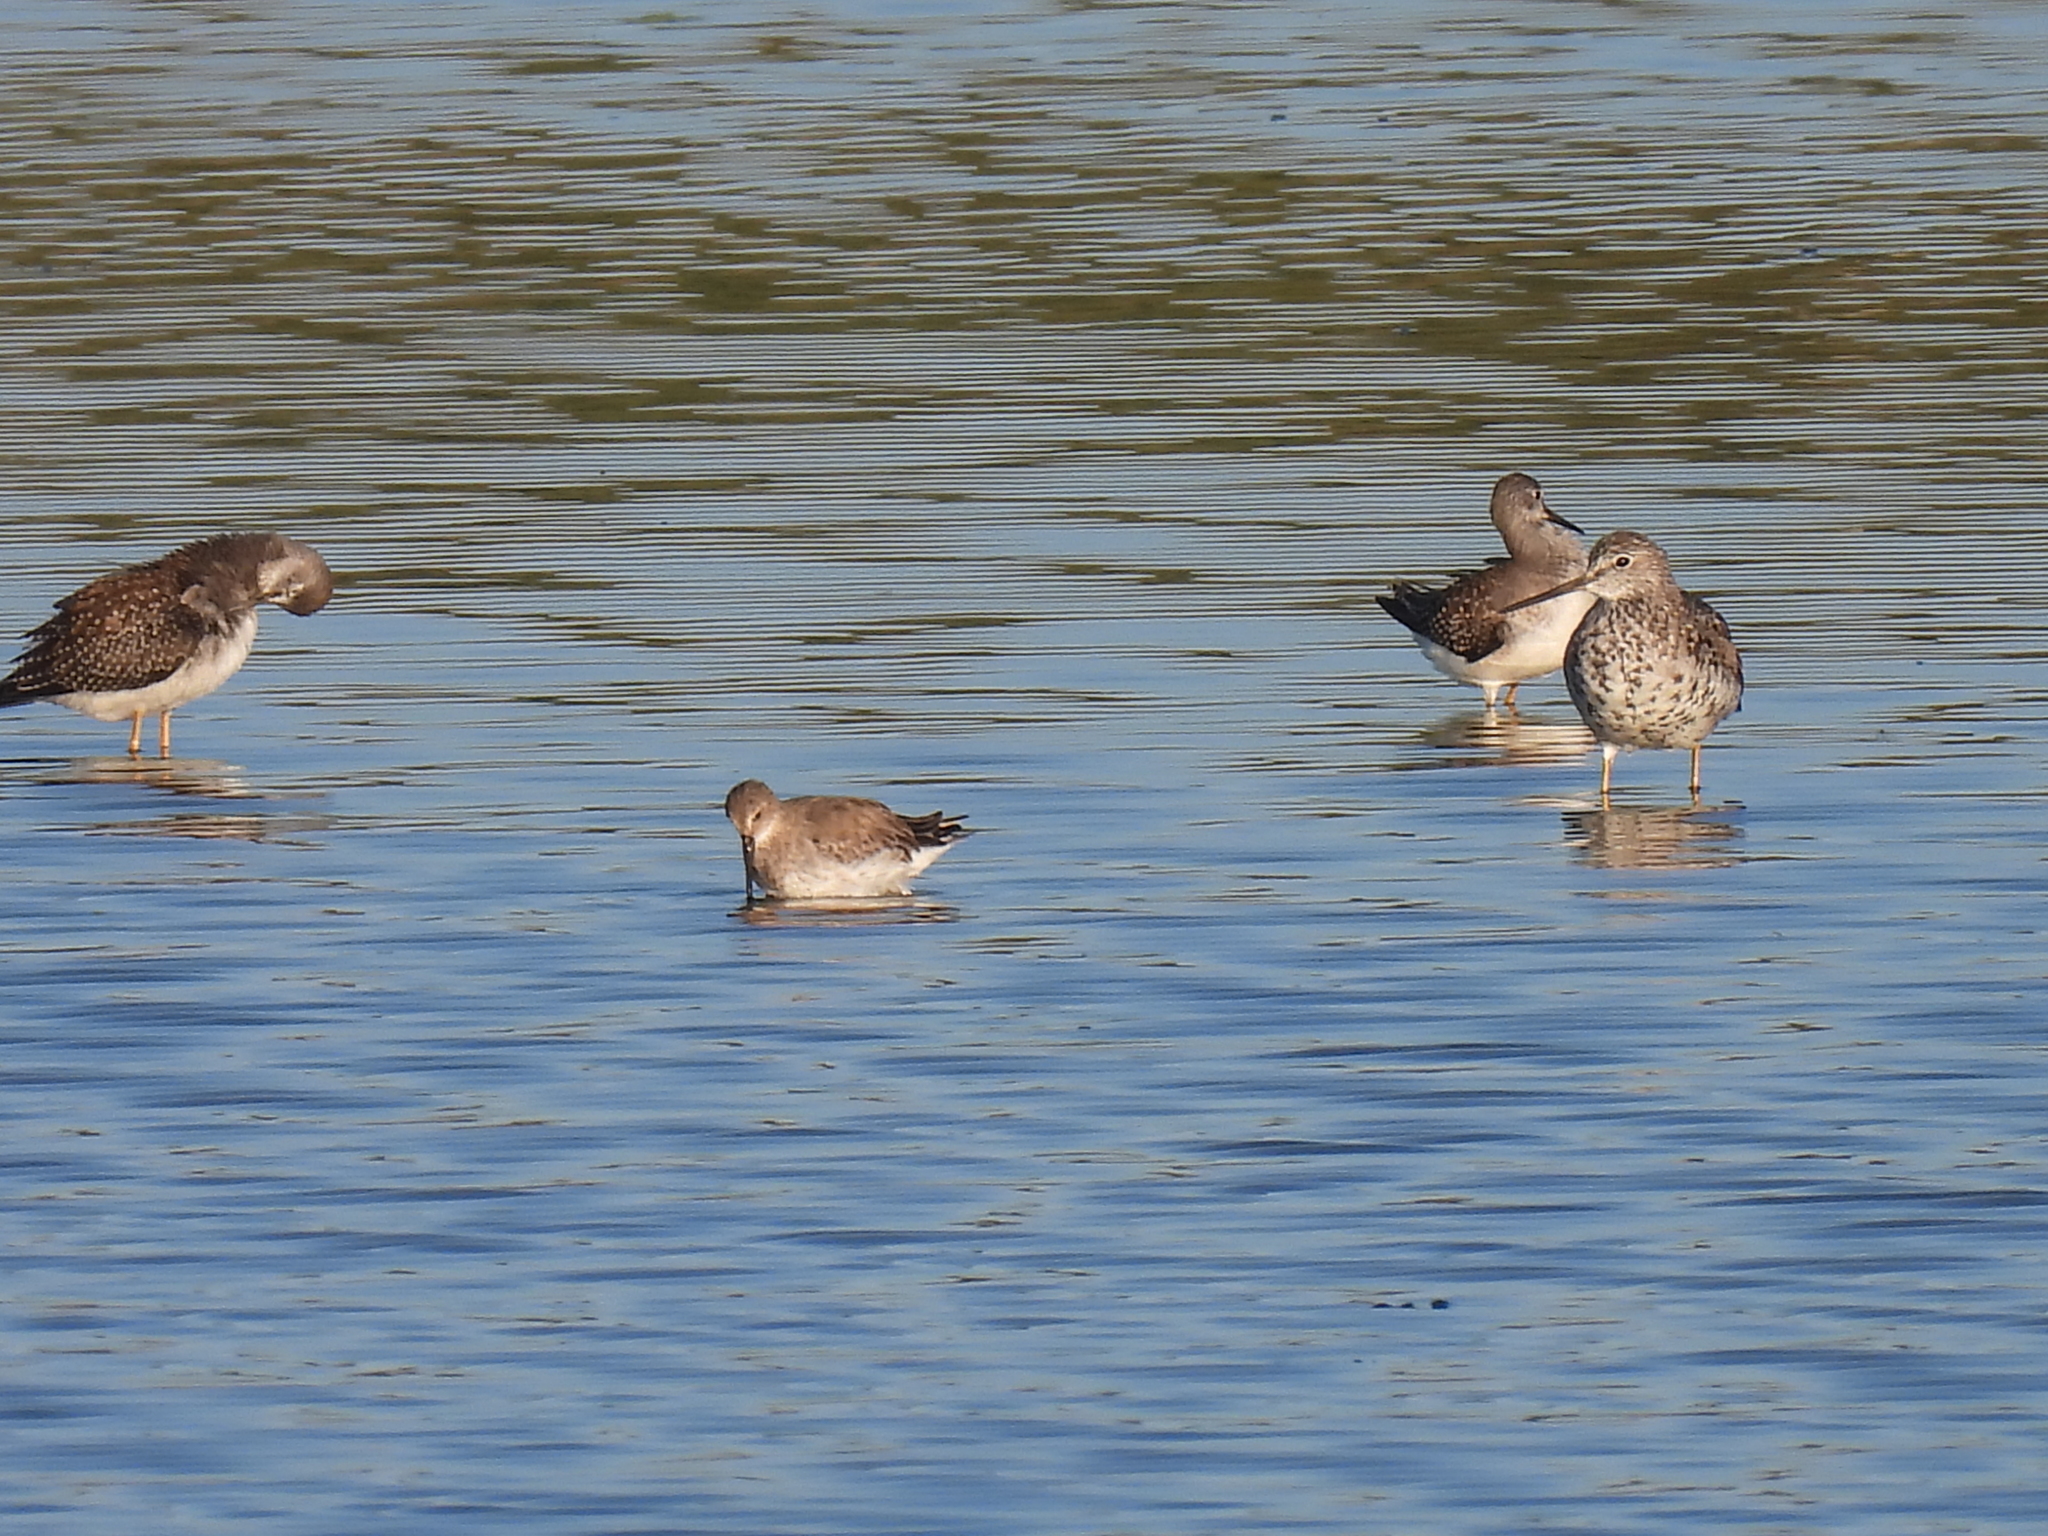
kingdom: Animalia
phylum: Chordata
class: Aves
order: Charadriiformes
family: Scolopacidae
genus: Calidris
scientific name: Calidris alpina
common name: Dunlin
